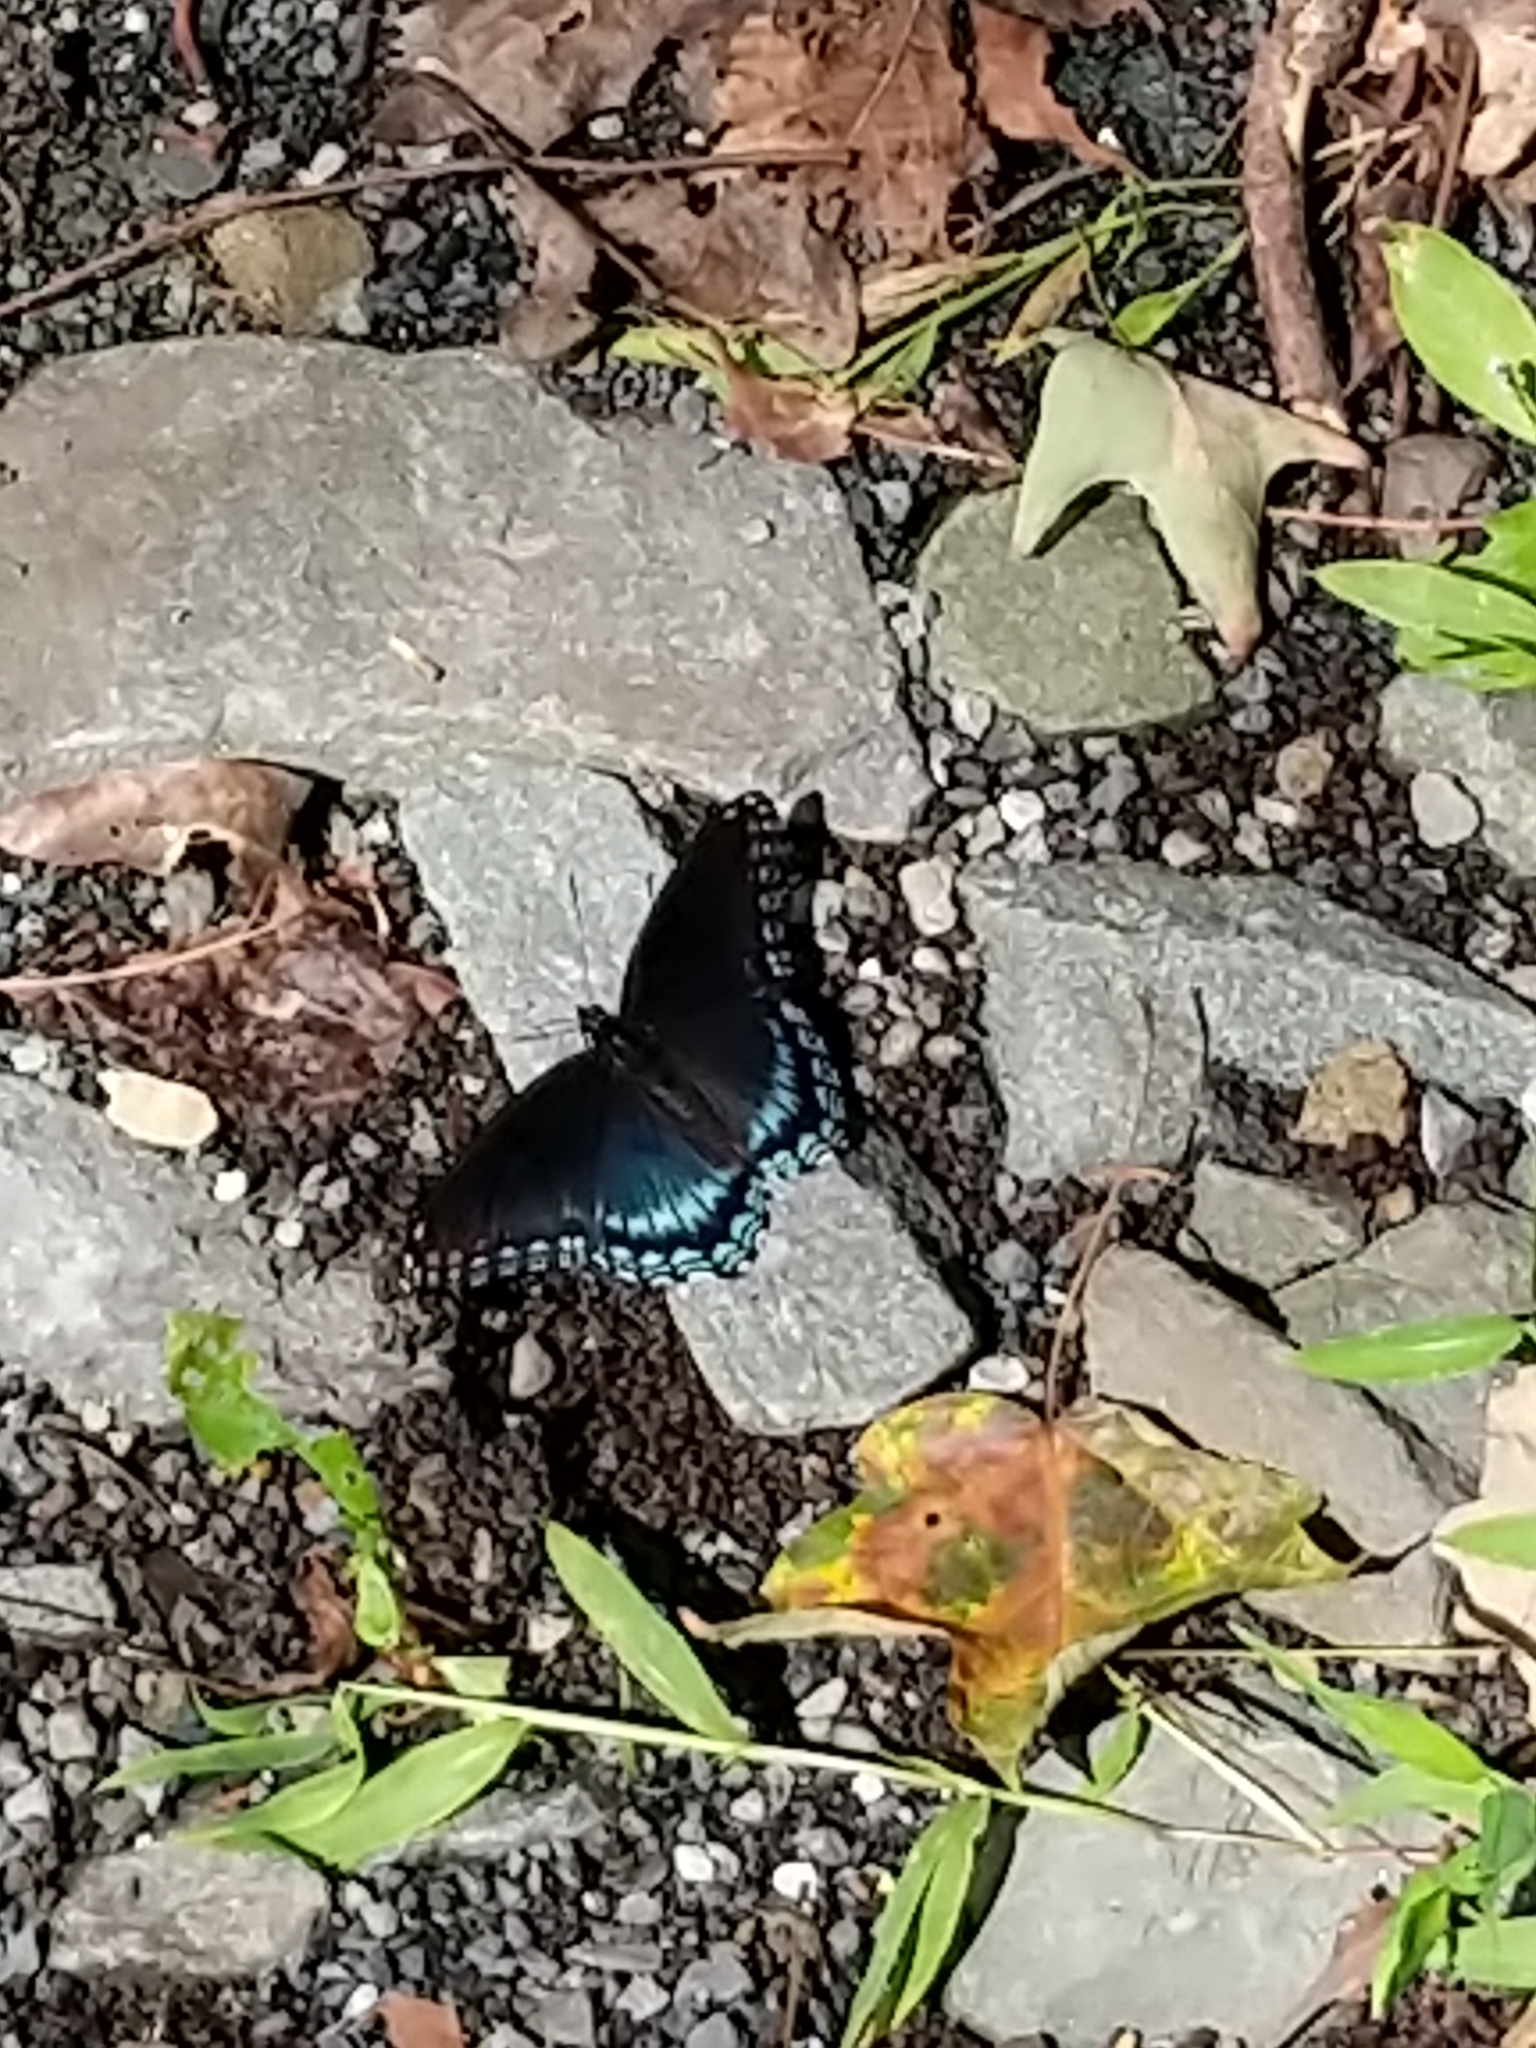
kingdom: Animalia
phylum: Arthropoda
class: Insecta
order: Lepidoptera
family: Nymphalidae
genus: Limenitis
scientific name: Limenitis arthemis
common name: Red-spotted admiral
